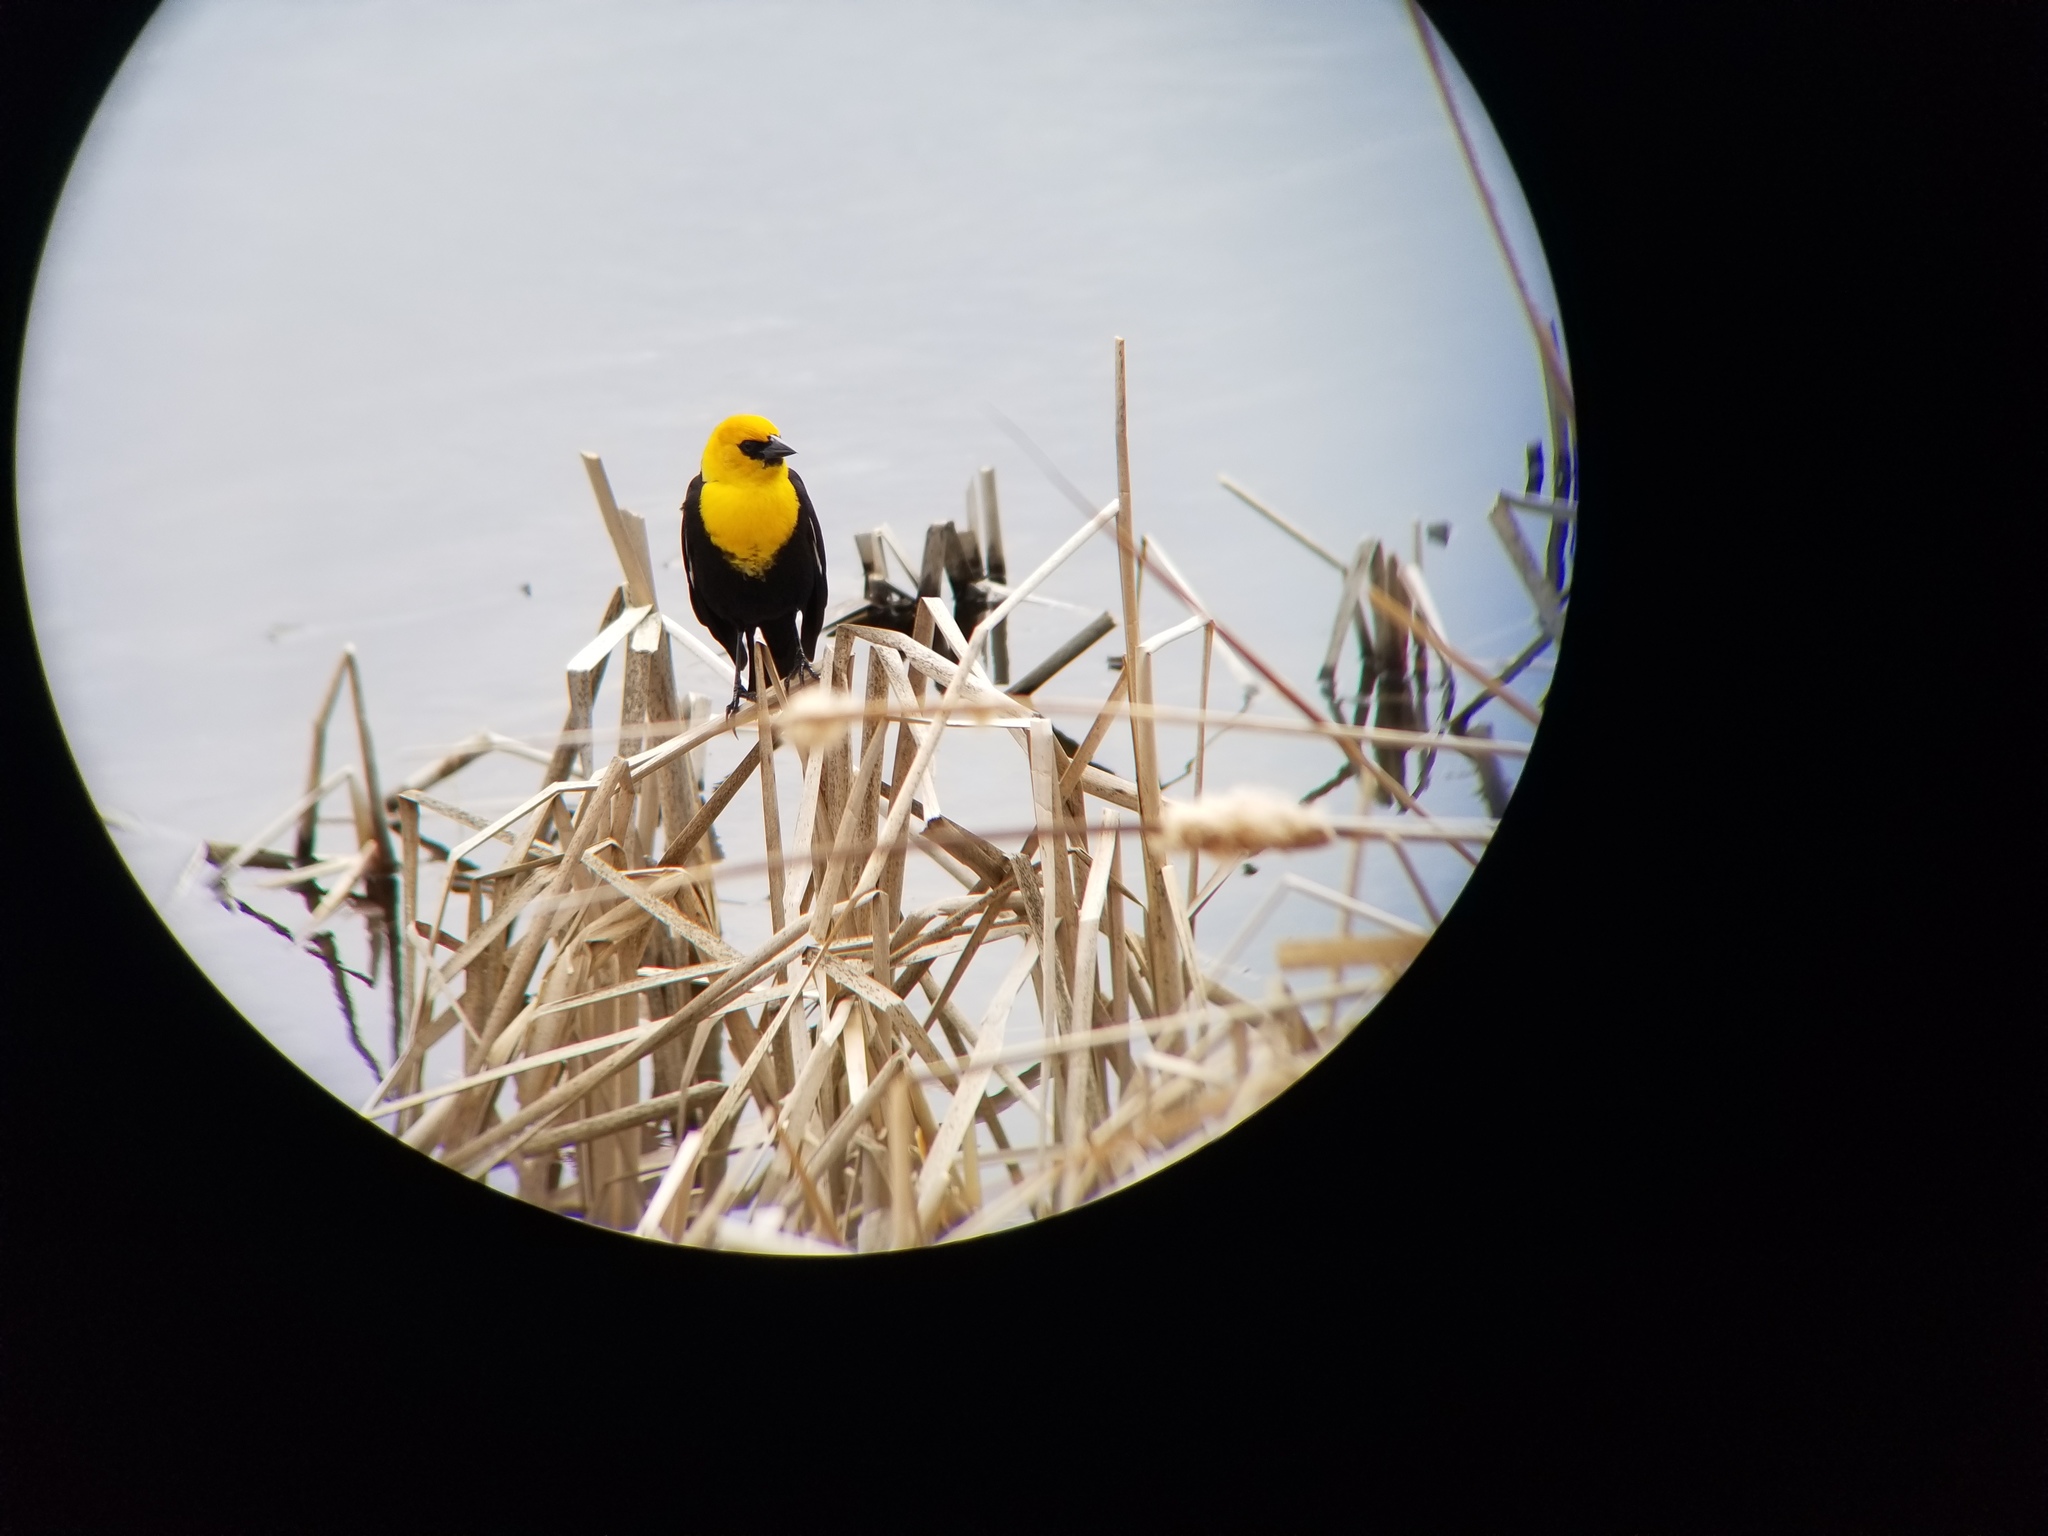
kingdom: Animalia
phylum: Chordata
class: Aves
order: Passeriformes
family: Icteridae
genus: Xanthocephalus
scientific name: Xanthocephalus xanthocephalus
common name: Yellow-headed blackbird
